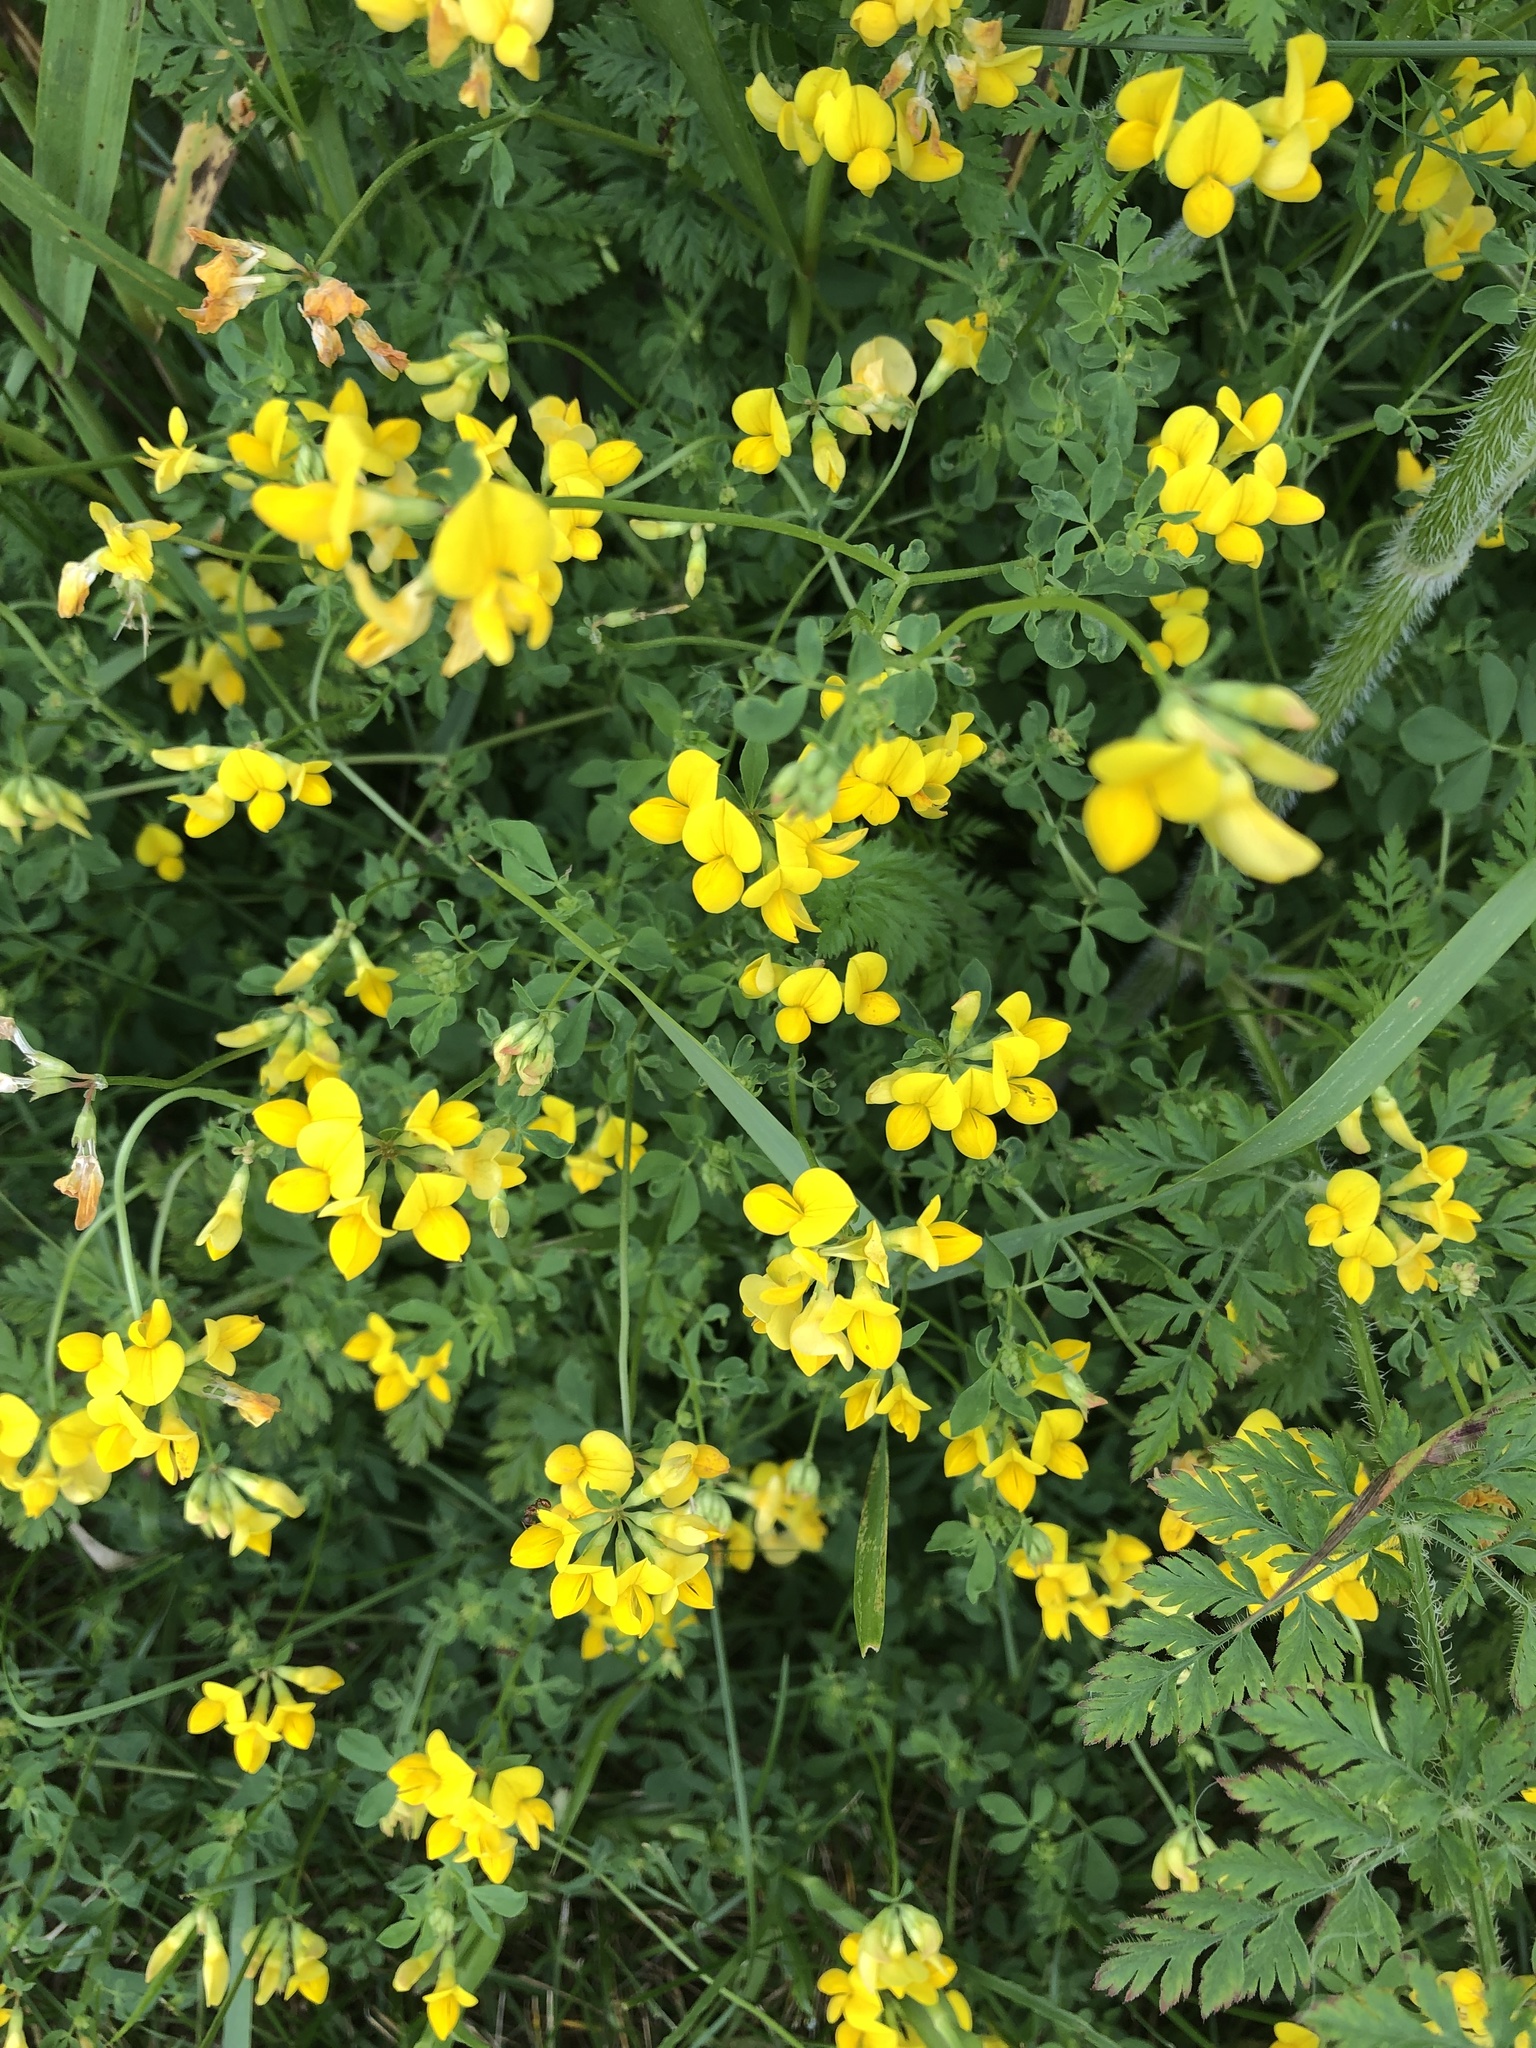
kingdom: Plantae
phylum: Tracheophyta
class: Magnoliopsida
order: Fabales
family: Fabaceae
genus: Lotus
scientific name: Lotus corniculatus
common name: Common bird's-foot-trefoil
